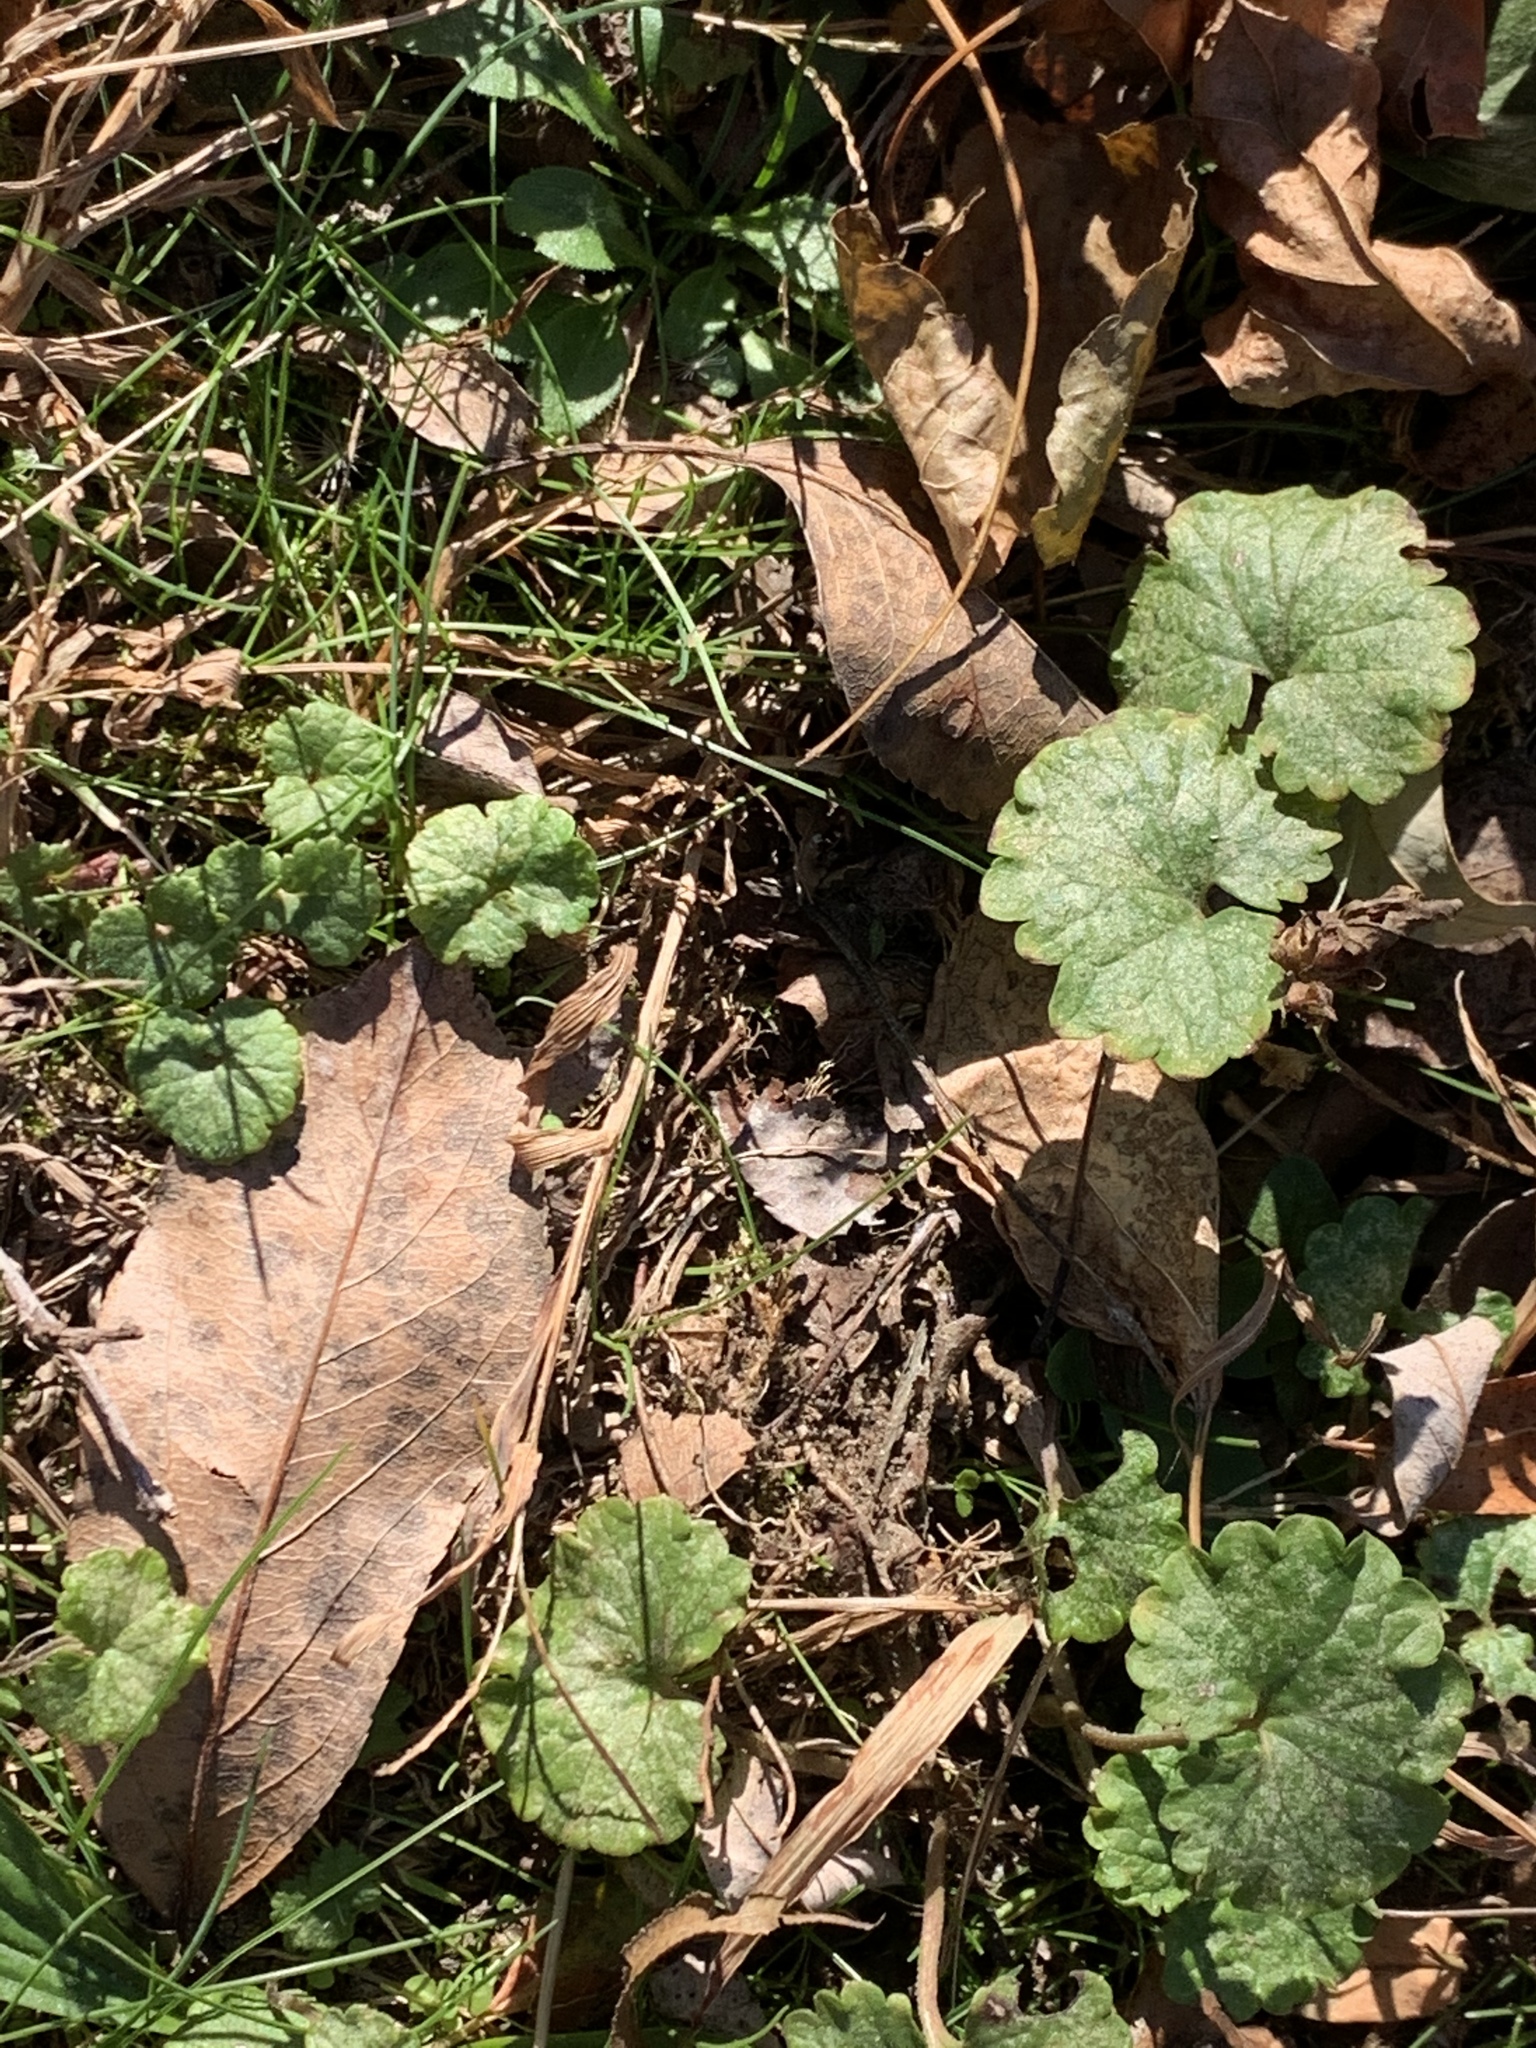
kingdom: Plantae
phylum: Tracheophyta
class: Magnoliopsida
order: Lamiales
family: Lamiaceae
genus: Glechoma
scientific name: Glechoma hederacea
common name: Ground ivy
